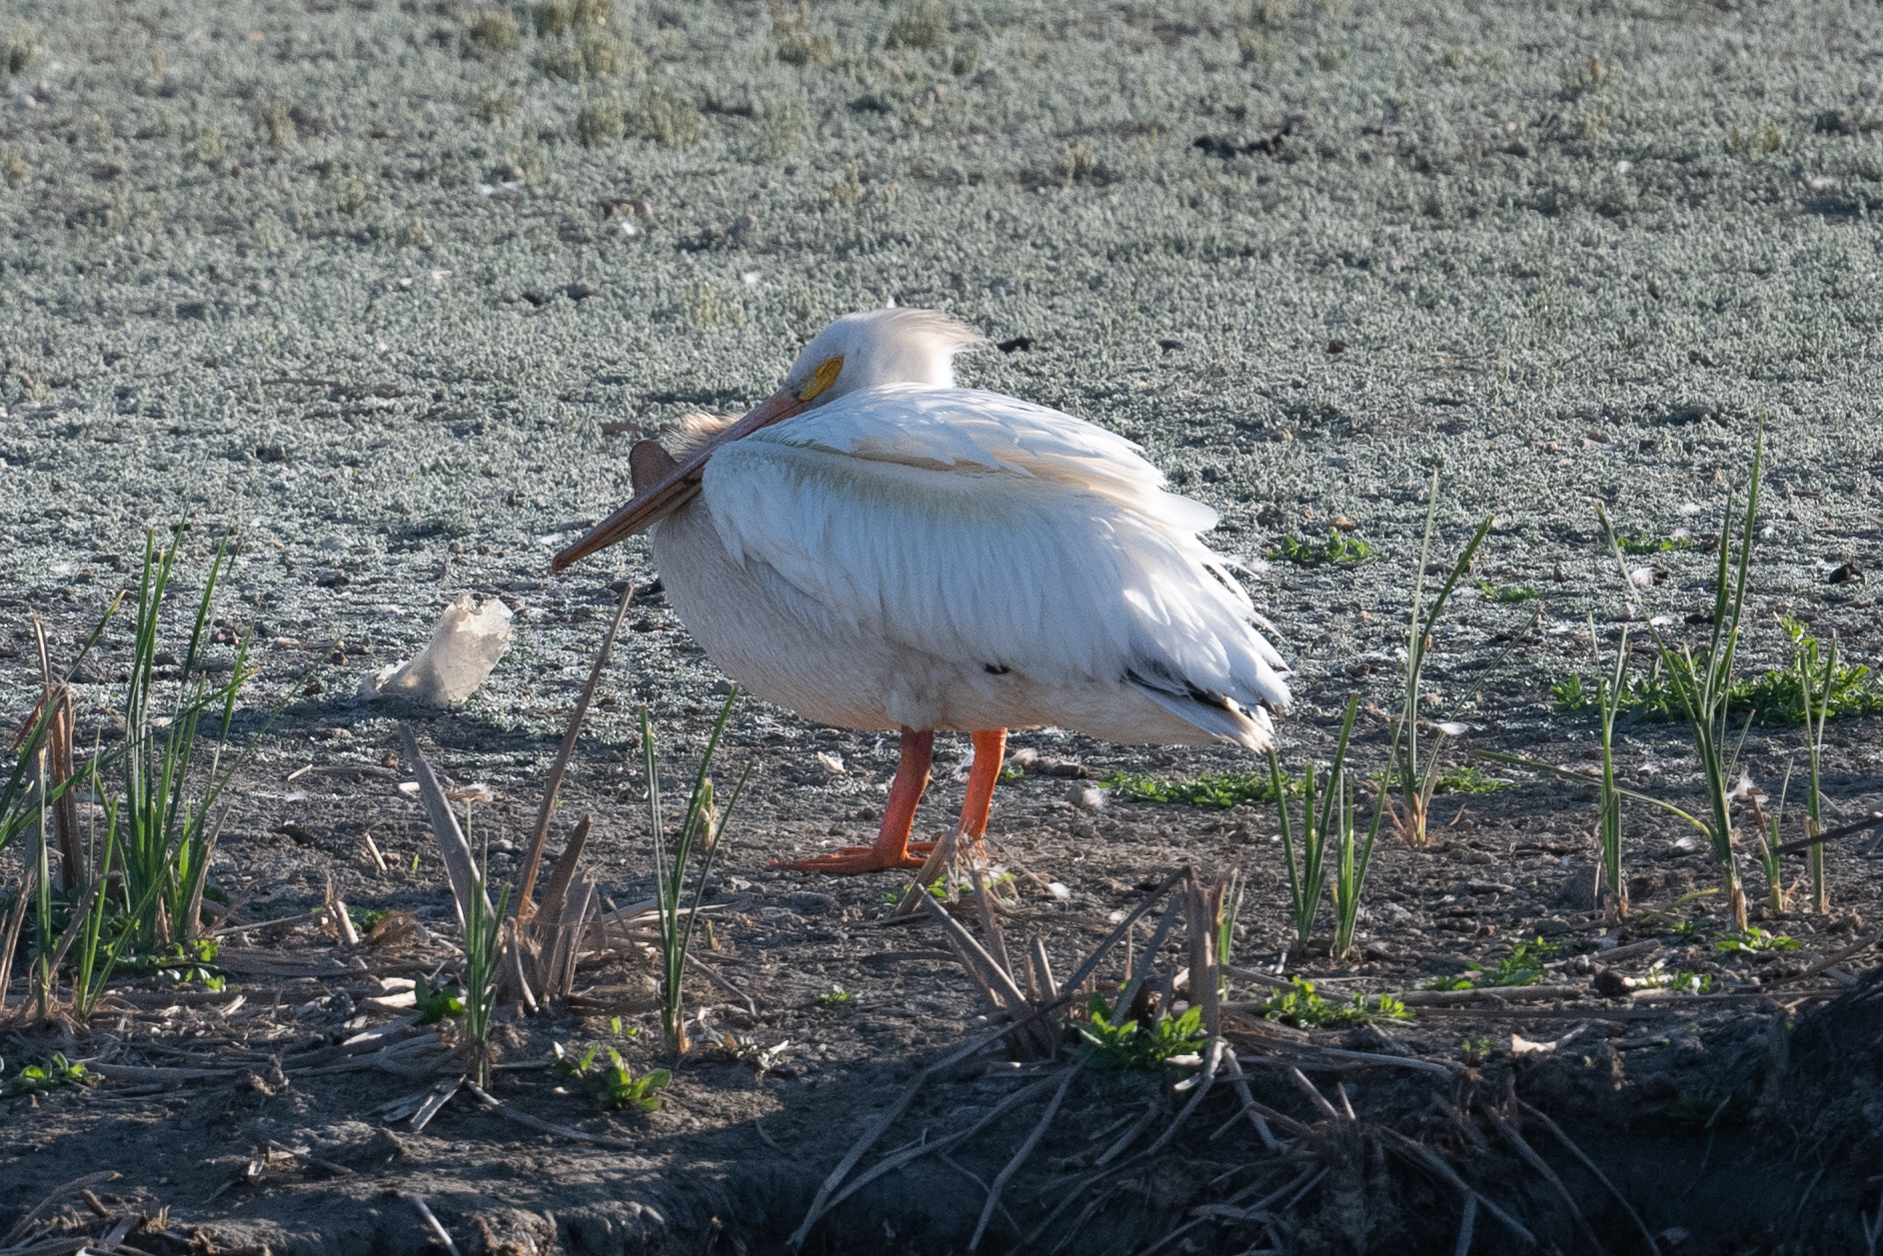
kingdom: Animalia
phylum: Chordata
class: Aves
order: Pelecaniformes
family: Pelecanidae
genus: Pelecanus
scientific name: Pelecanus erythrorhynchos
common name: American white pelican
